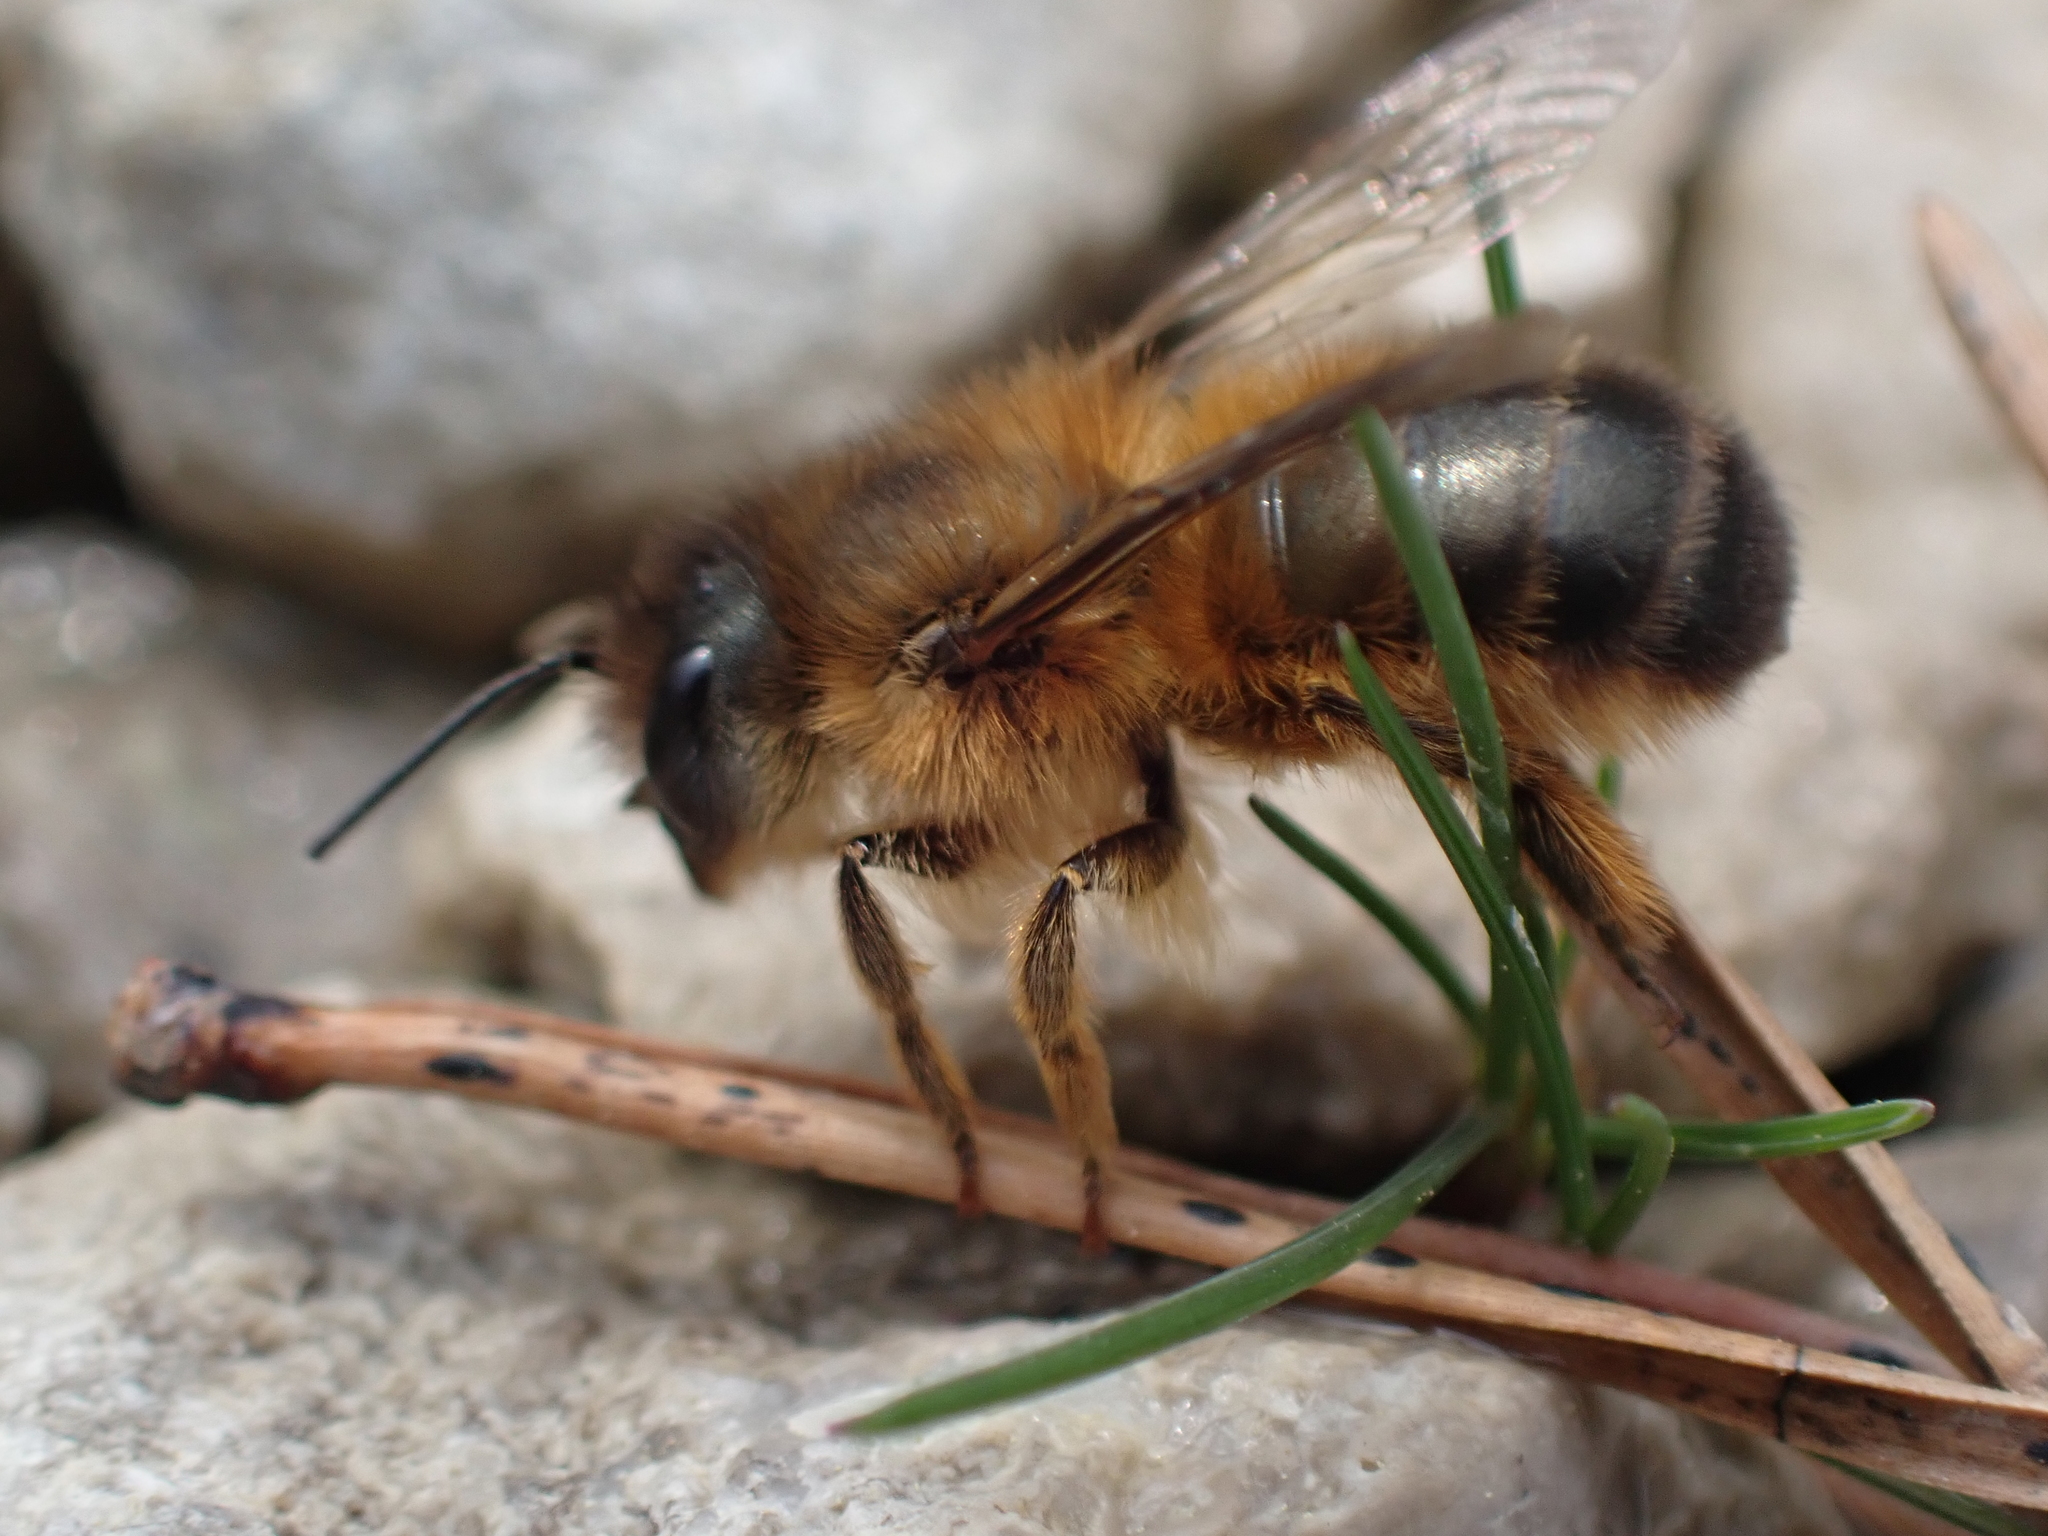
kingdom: Animalia
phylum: Arthropoda
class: Insecta
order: Hymenoptera
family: Megachilidae
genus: Osmia
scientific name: Osmia taurus
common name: Taurus mason bee
